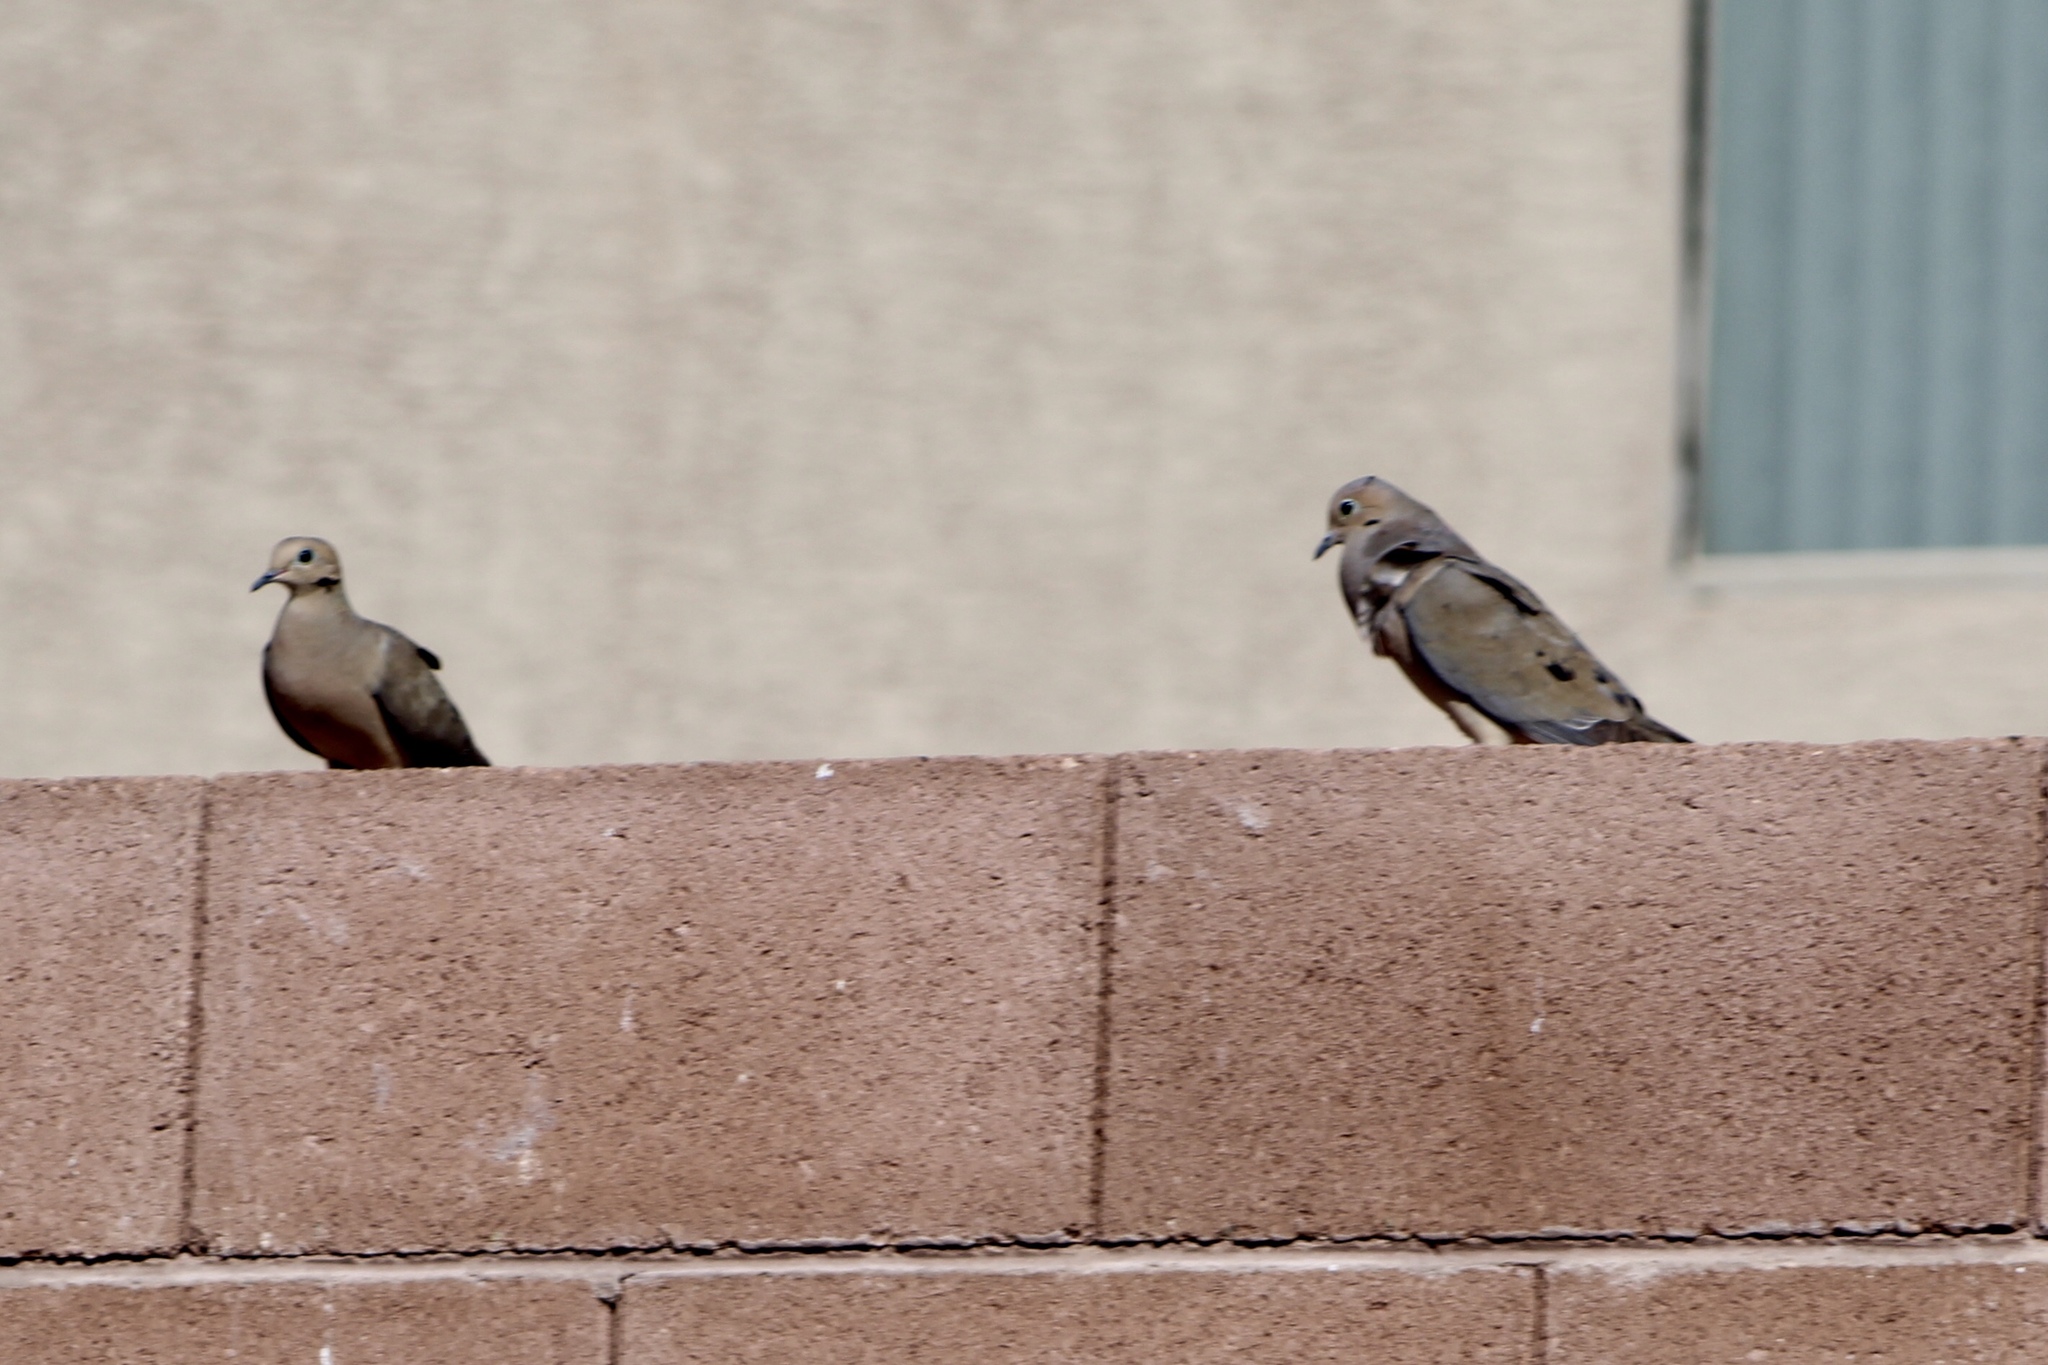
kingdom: Animalia
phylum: Chordata
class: Aves
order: Columbiformes
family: Columbidae
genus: Zenaida
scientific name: Zenaida macroura
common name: Mourning dove
